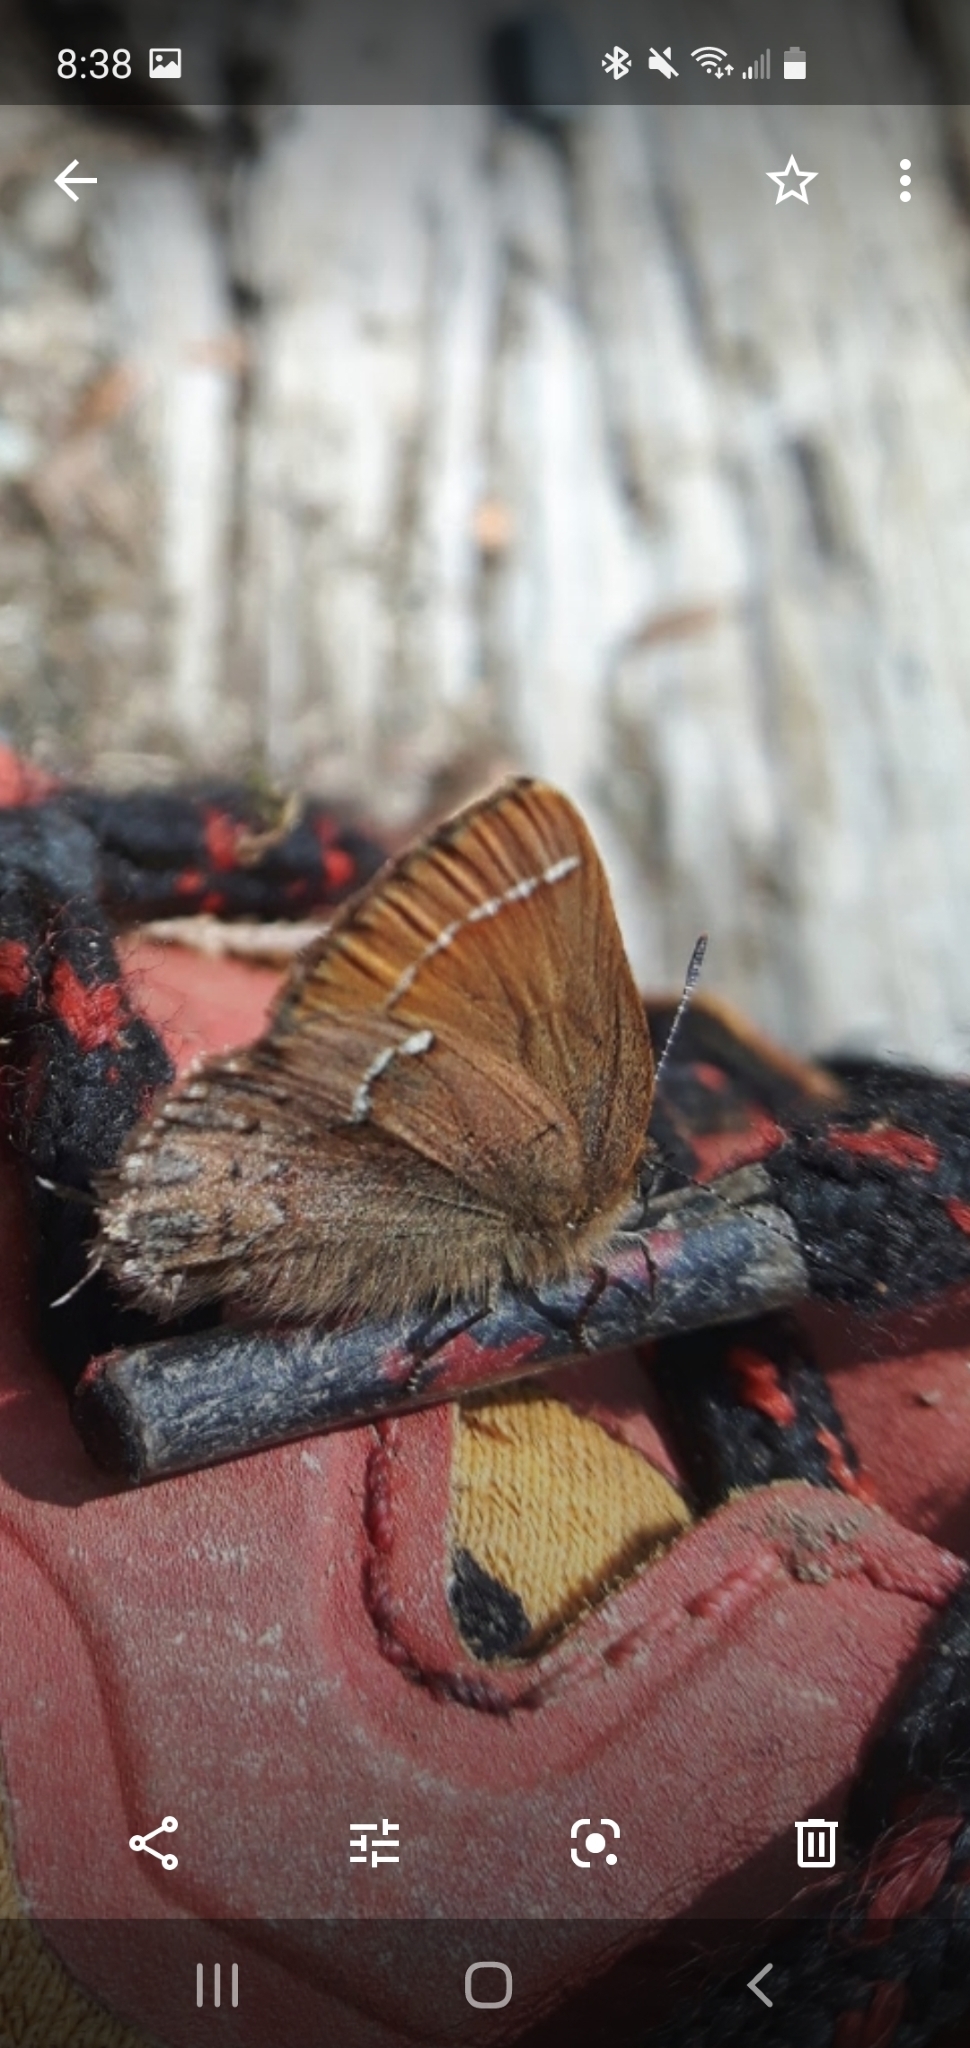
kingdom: Animalia
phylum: Arthropoda
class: Insecta
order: Lepidoptera
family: Lycaenidae
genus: Mitoura
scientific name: Mitoura gryneus
